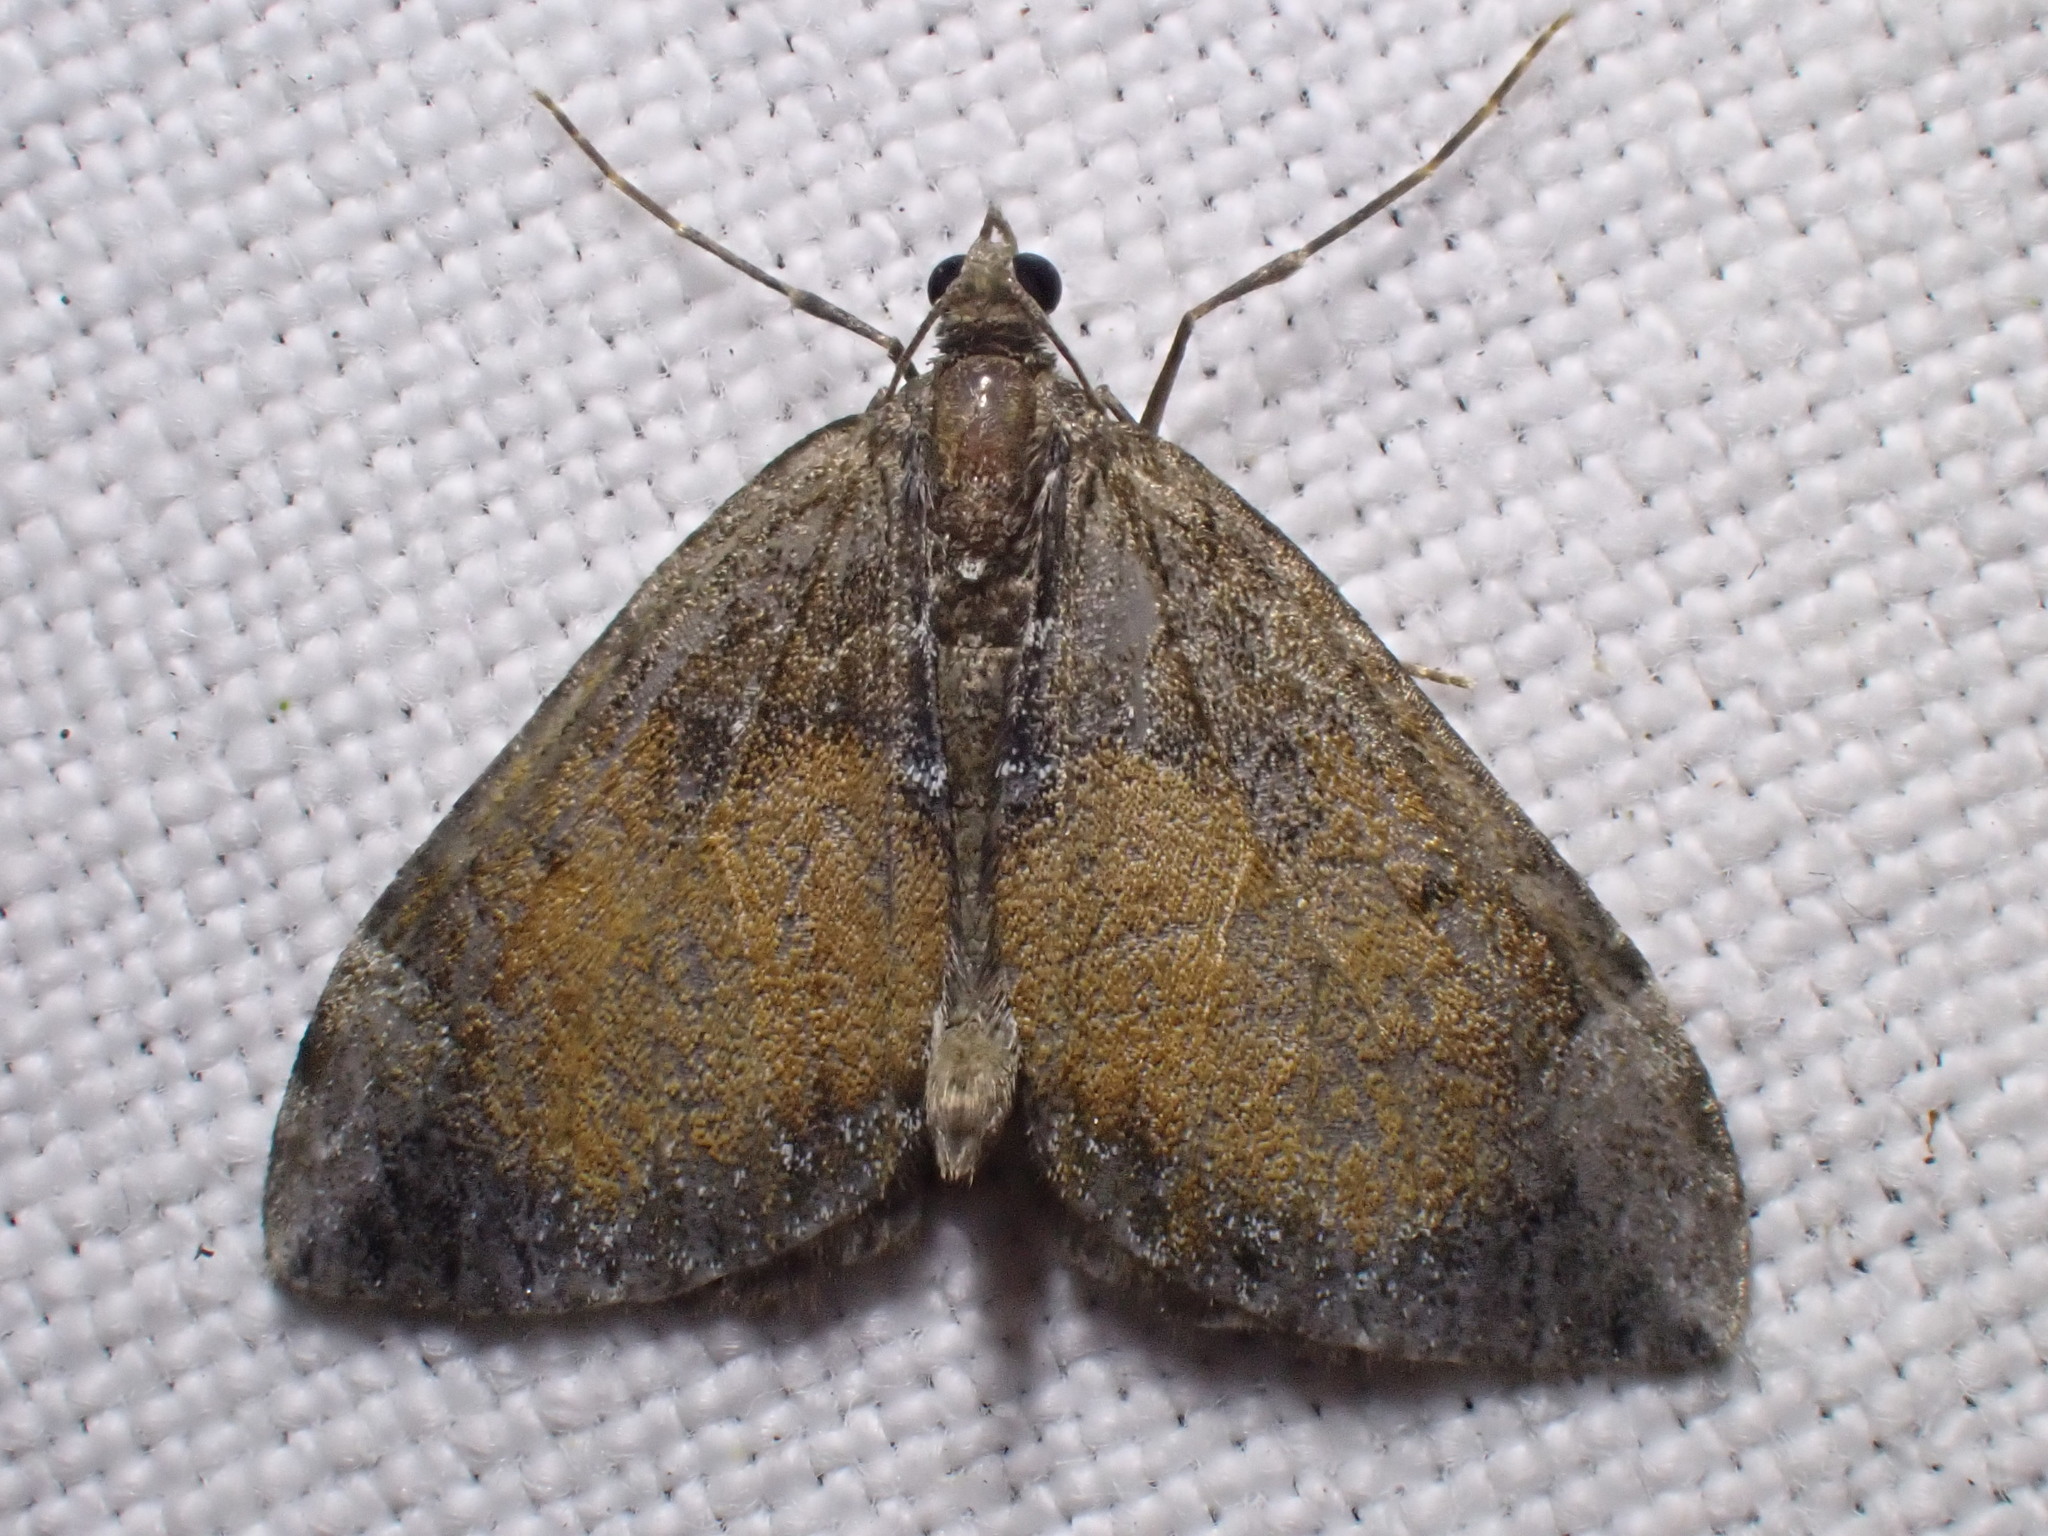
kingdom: Animalia
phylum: Arthropoda
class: Insecta
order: Lepidoptera
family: Geometridae
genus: Dysstroma
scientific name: Dysstroma truncata
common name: Common marbled carpet
